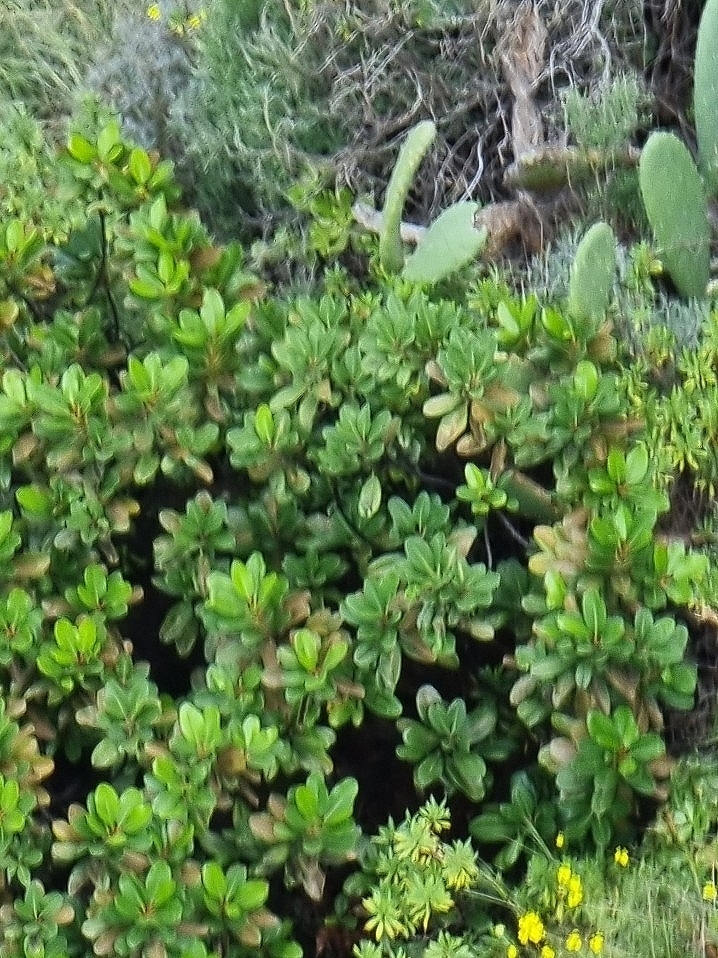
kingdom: Plantae
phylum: Tracheophyta
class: Magnoliopsida
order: Ericales
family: Sapotaceae
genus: Sideroxylon
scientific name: Sideroxylon mirmulans
